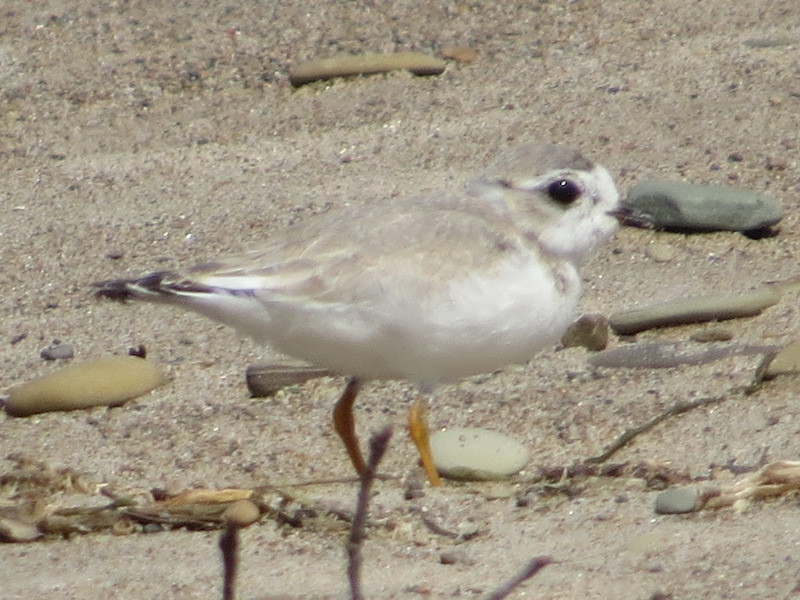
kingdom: Animalia
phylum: Chordata
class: Aves
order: Charadriiformes
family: Charadriidae
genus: Charadrius
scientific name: Charadrius melodus
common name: Piping plover
